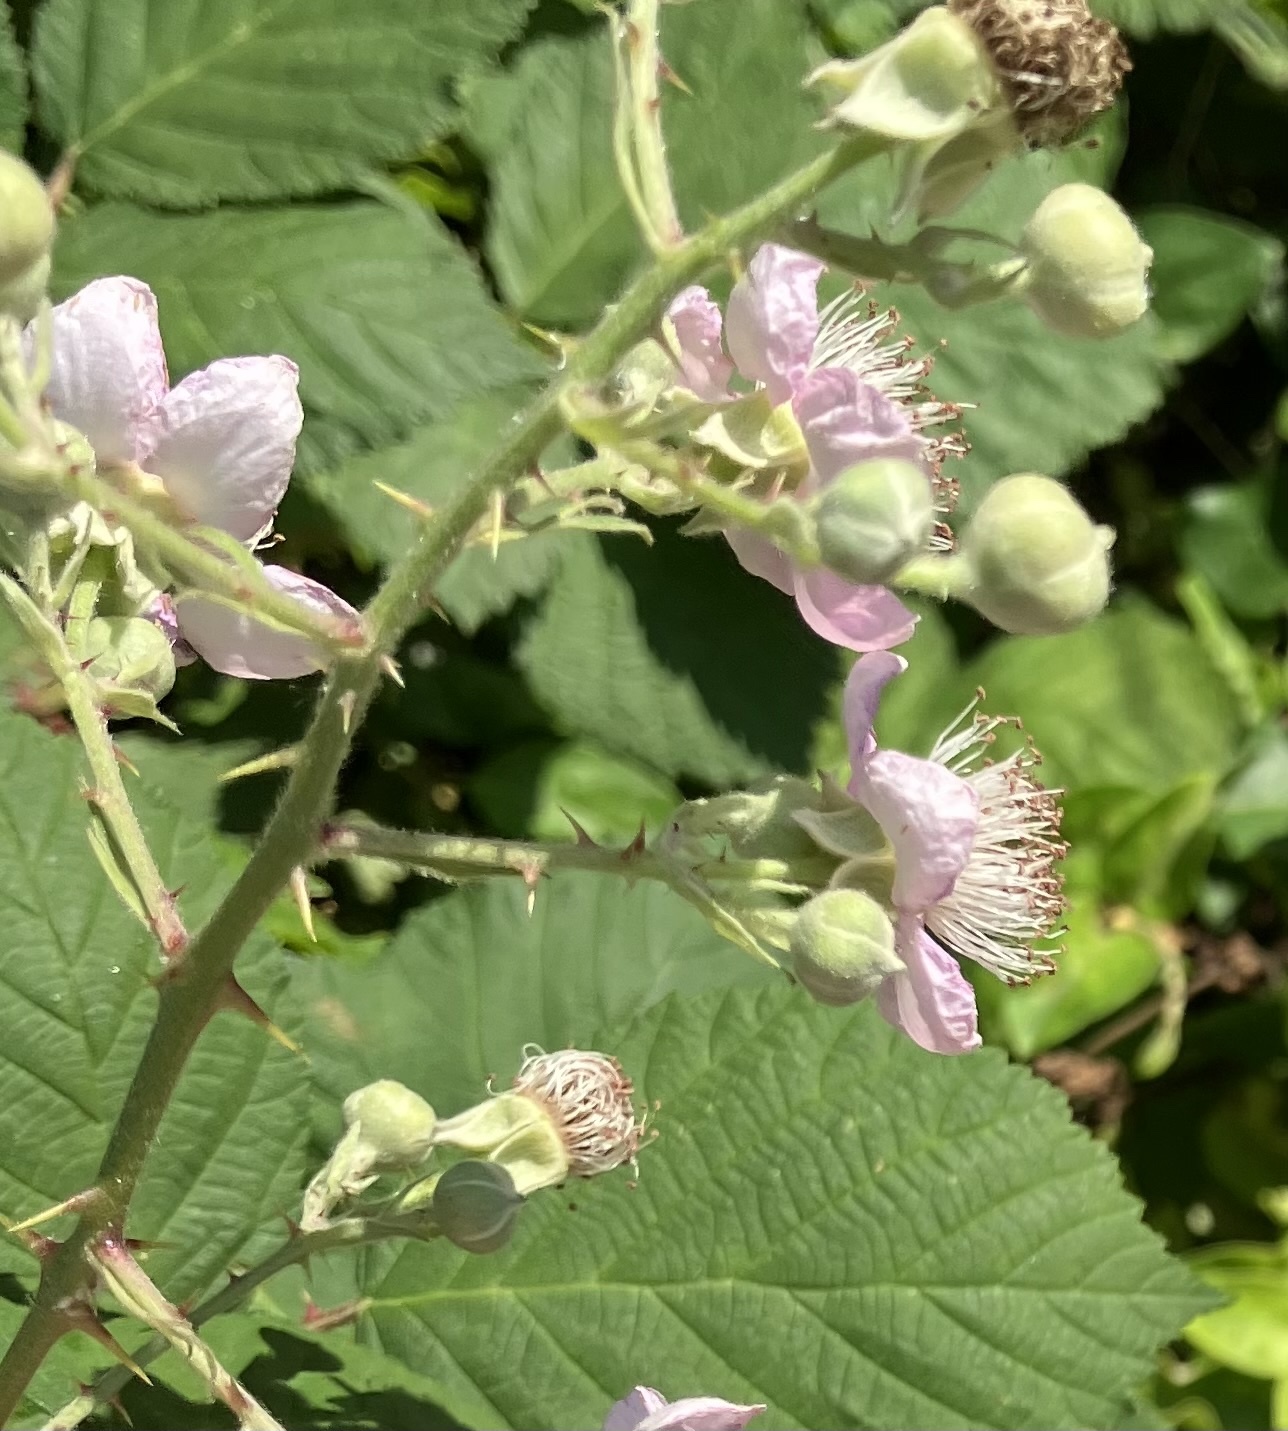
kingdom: Plantae
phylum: Tracheophyta
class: Magnoliopsida
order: Rosales
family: Rosaceae
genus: Rubus
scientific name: Rubus bifrons
